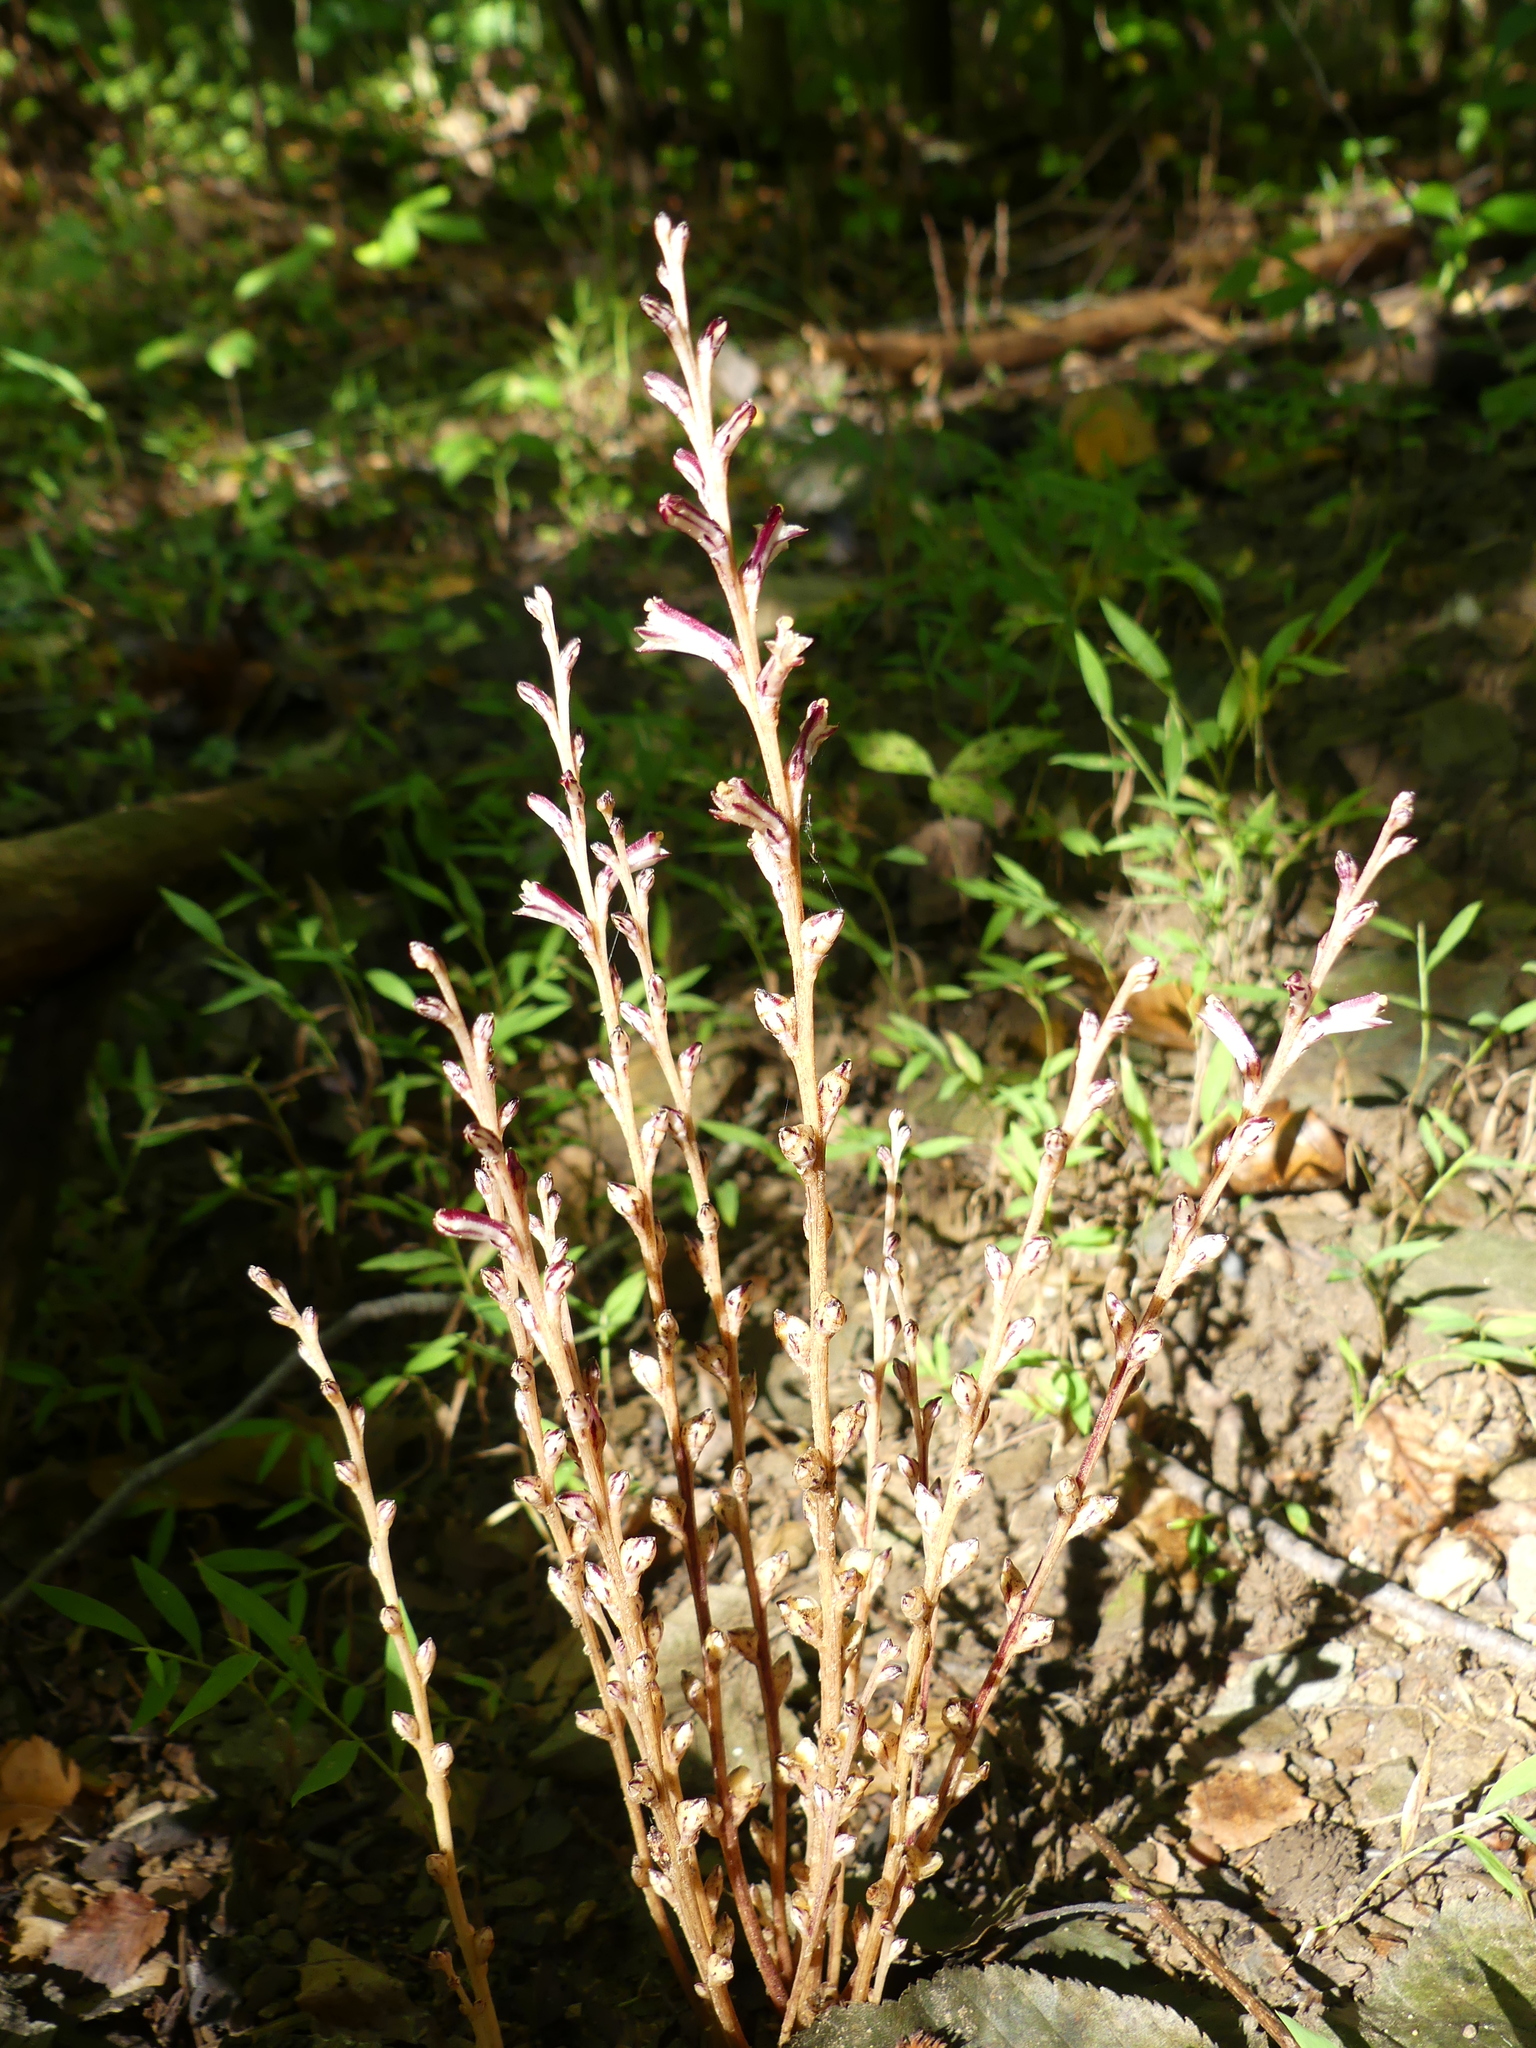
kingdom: Plantae
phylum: Tracheophyta
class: Magnoliopsida
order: Lamiales
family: Orobanchaceae
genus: Epifagus
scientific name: Epifagus virginiana
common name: Beechdrops
